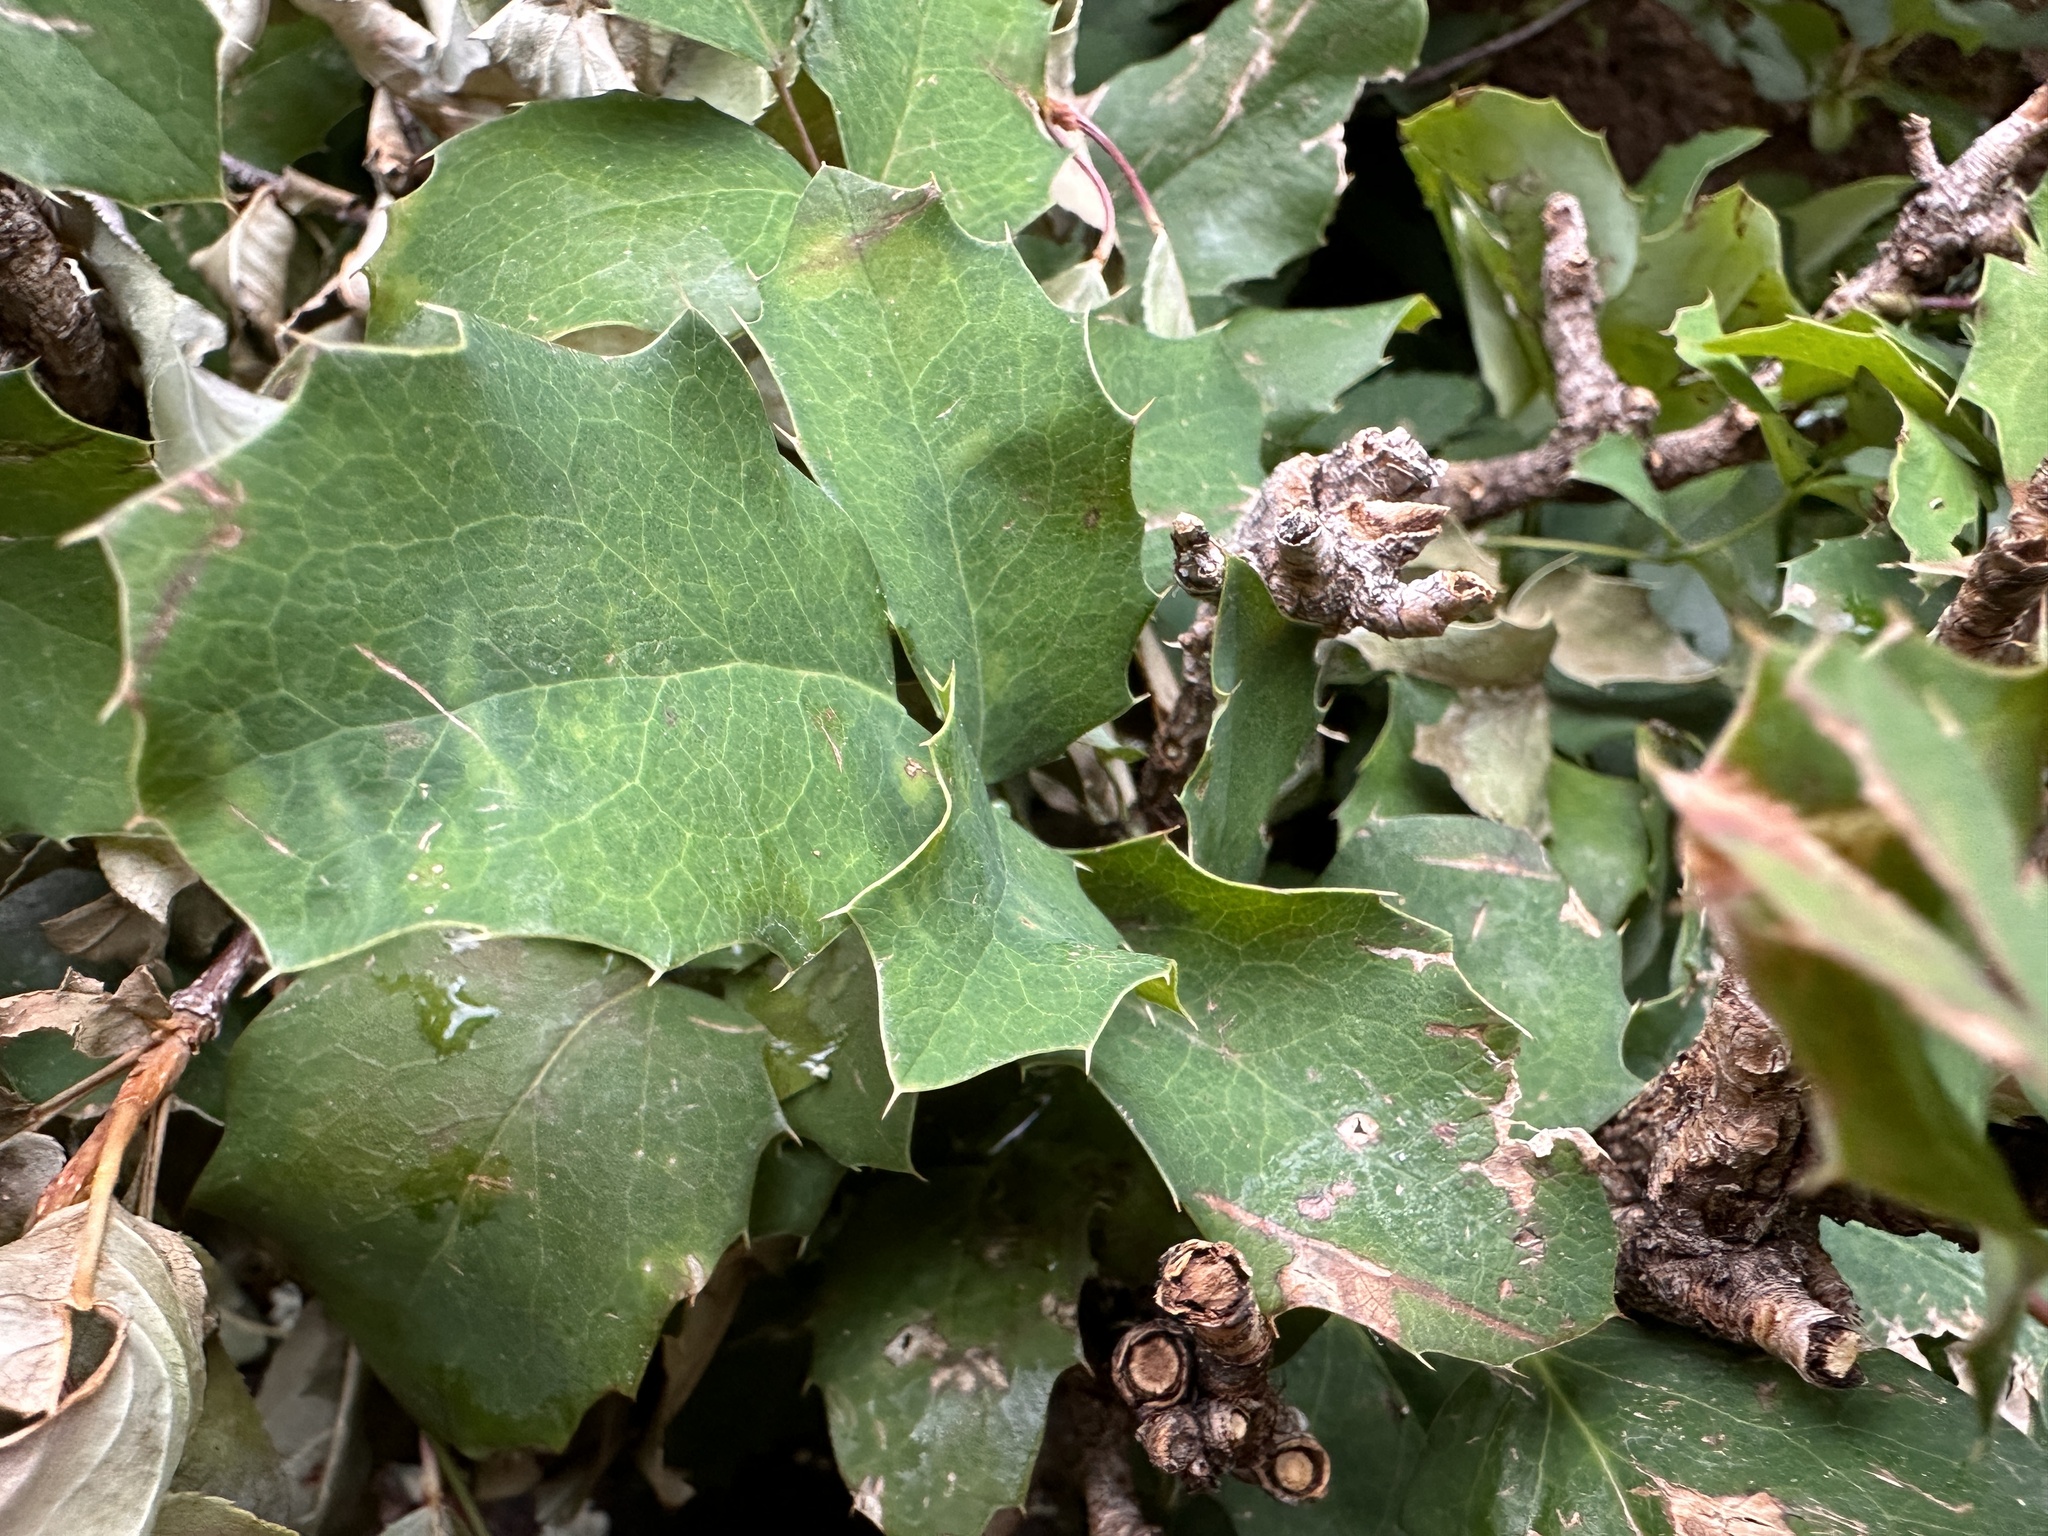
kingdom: Plantae
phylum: Tracheophyta
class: Magnoliopsida
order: Ranunculales
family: Berberidaceae
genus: Mahonia
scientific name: Mahonia repens
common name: Creeping oregon-grape
